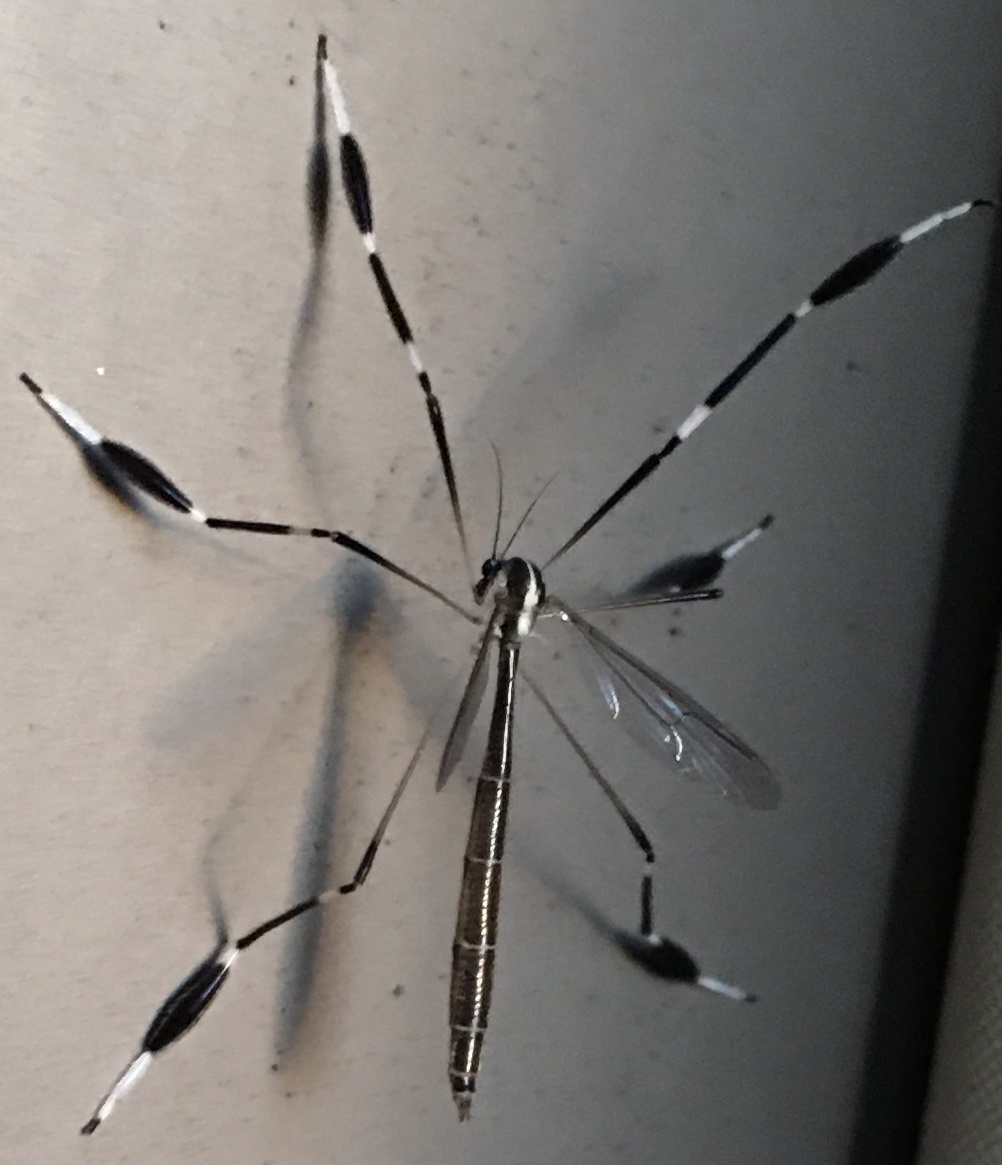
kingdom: Animalia
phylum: Arthropoda
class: Insecta
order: Diptera
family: Ptychopteridae
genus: Bittacomorpha
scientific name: Bittacomorpha clavipes
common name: Eastern phantom crane fly
